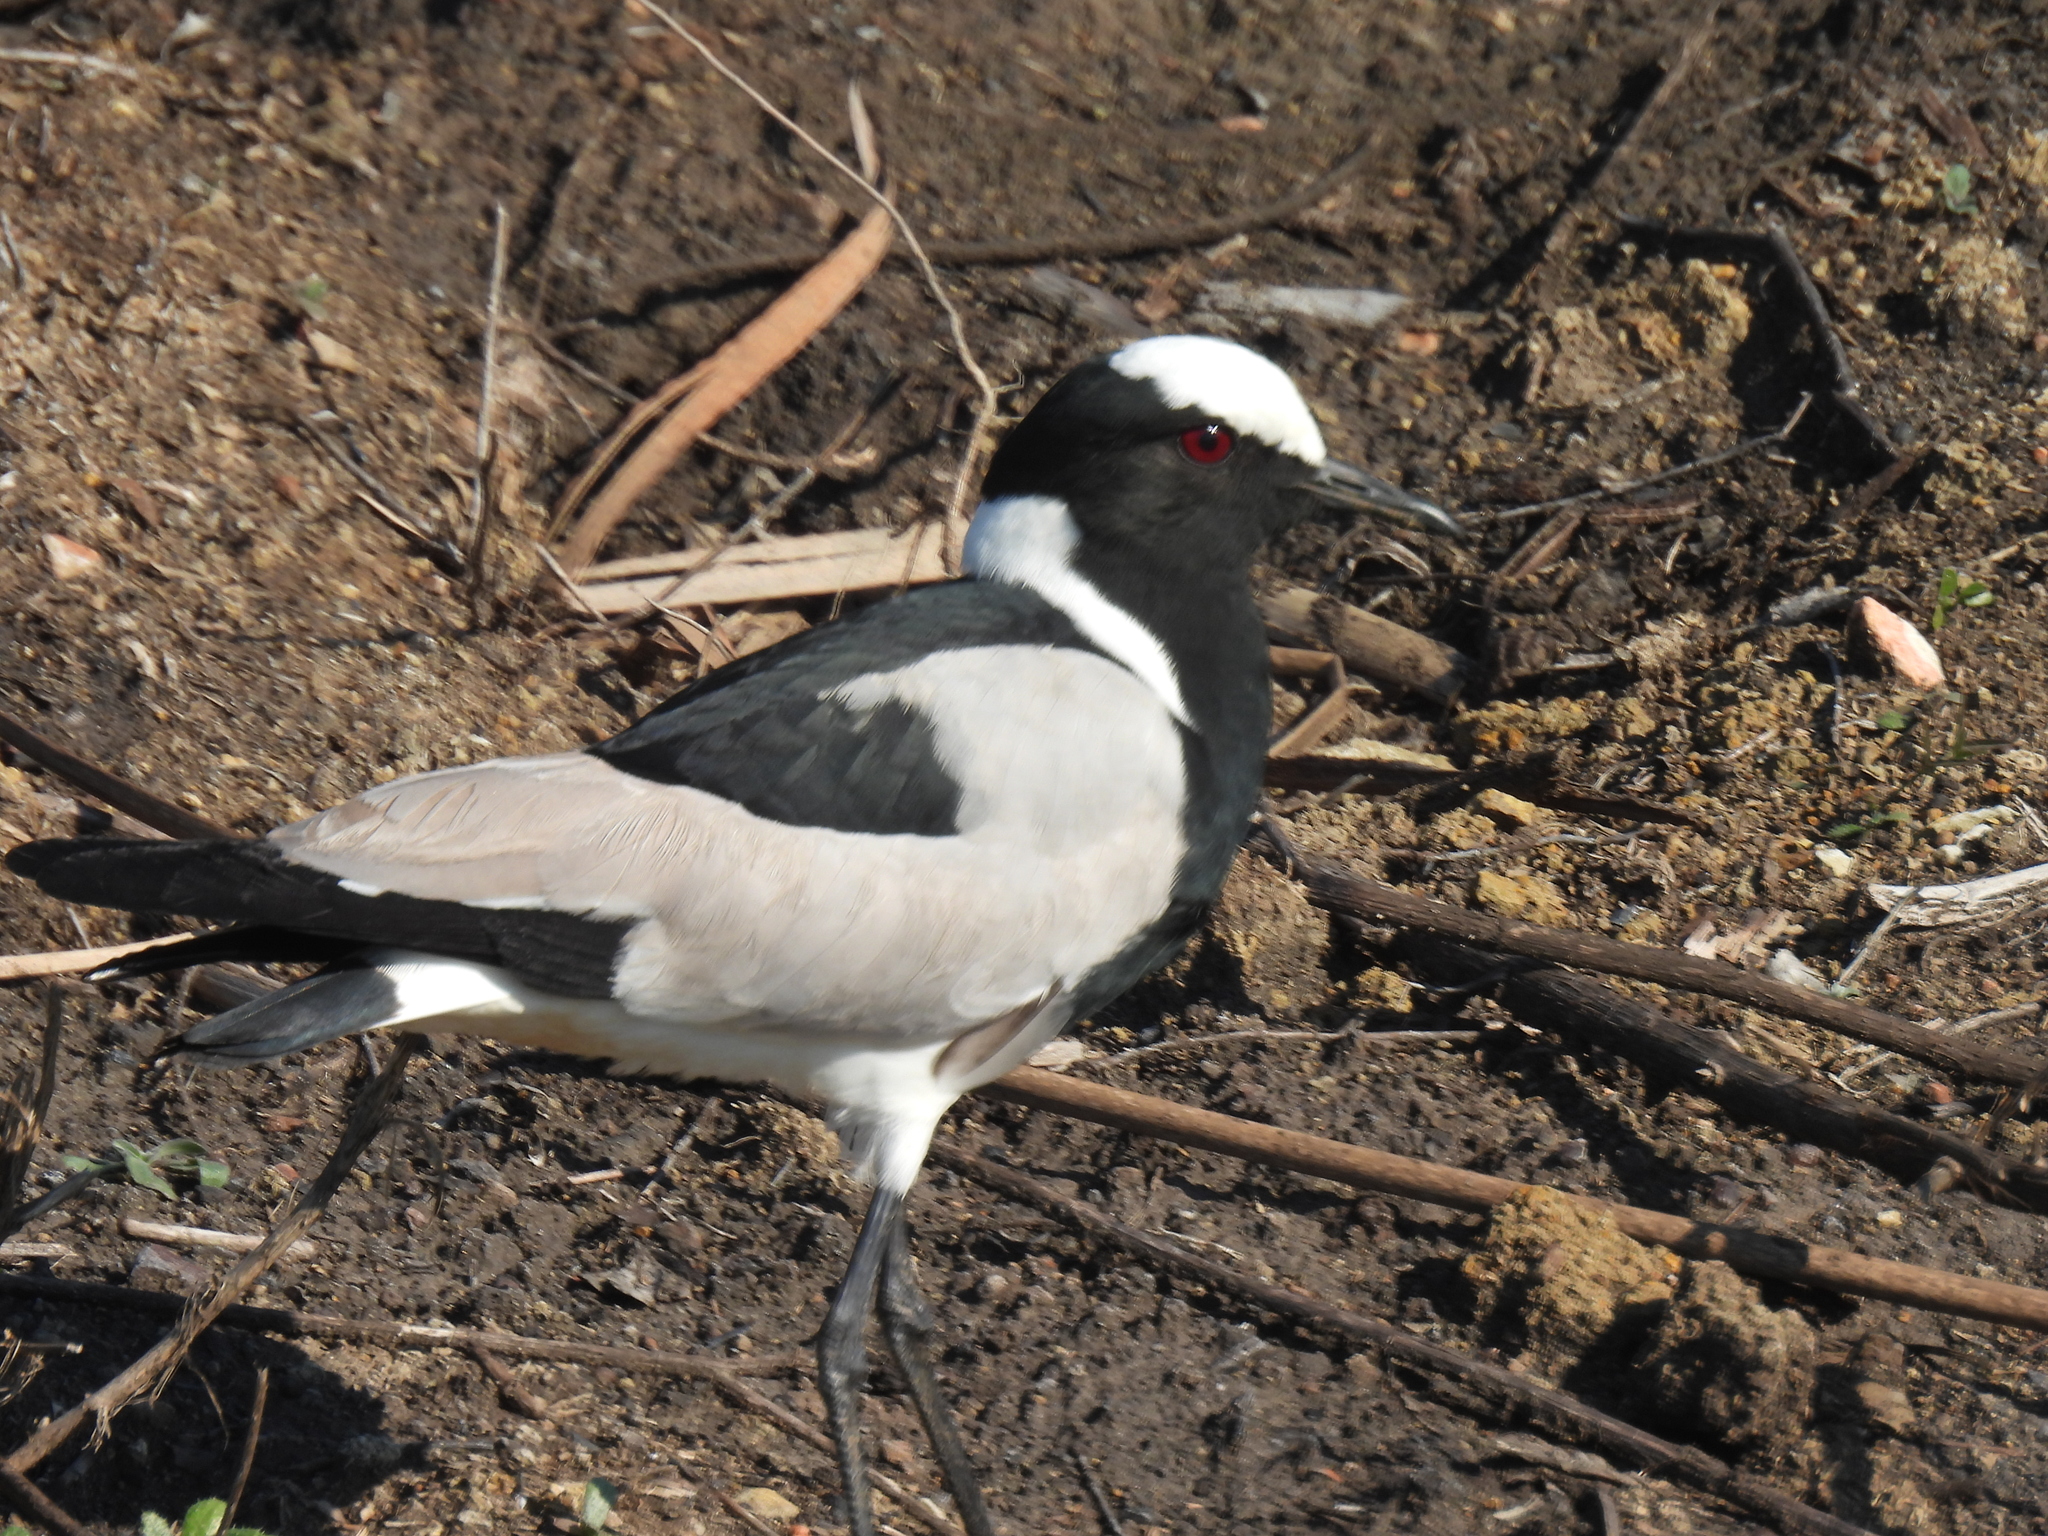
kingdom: Animalia
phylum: Chordata
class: Aves
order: Charadriiformes
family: Charadriidae
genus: Vanellus
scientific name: Vanellus armatus
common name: Blacksmith lapwing
